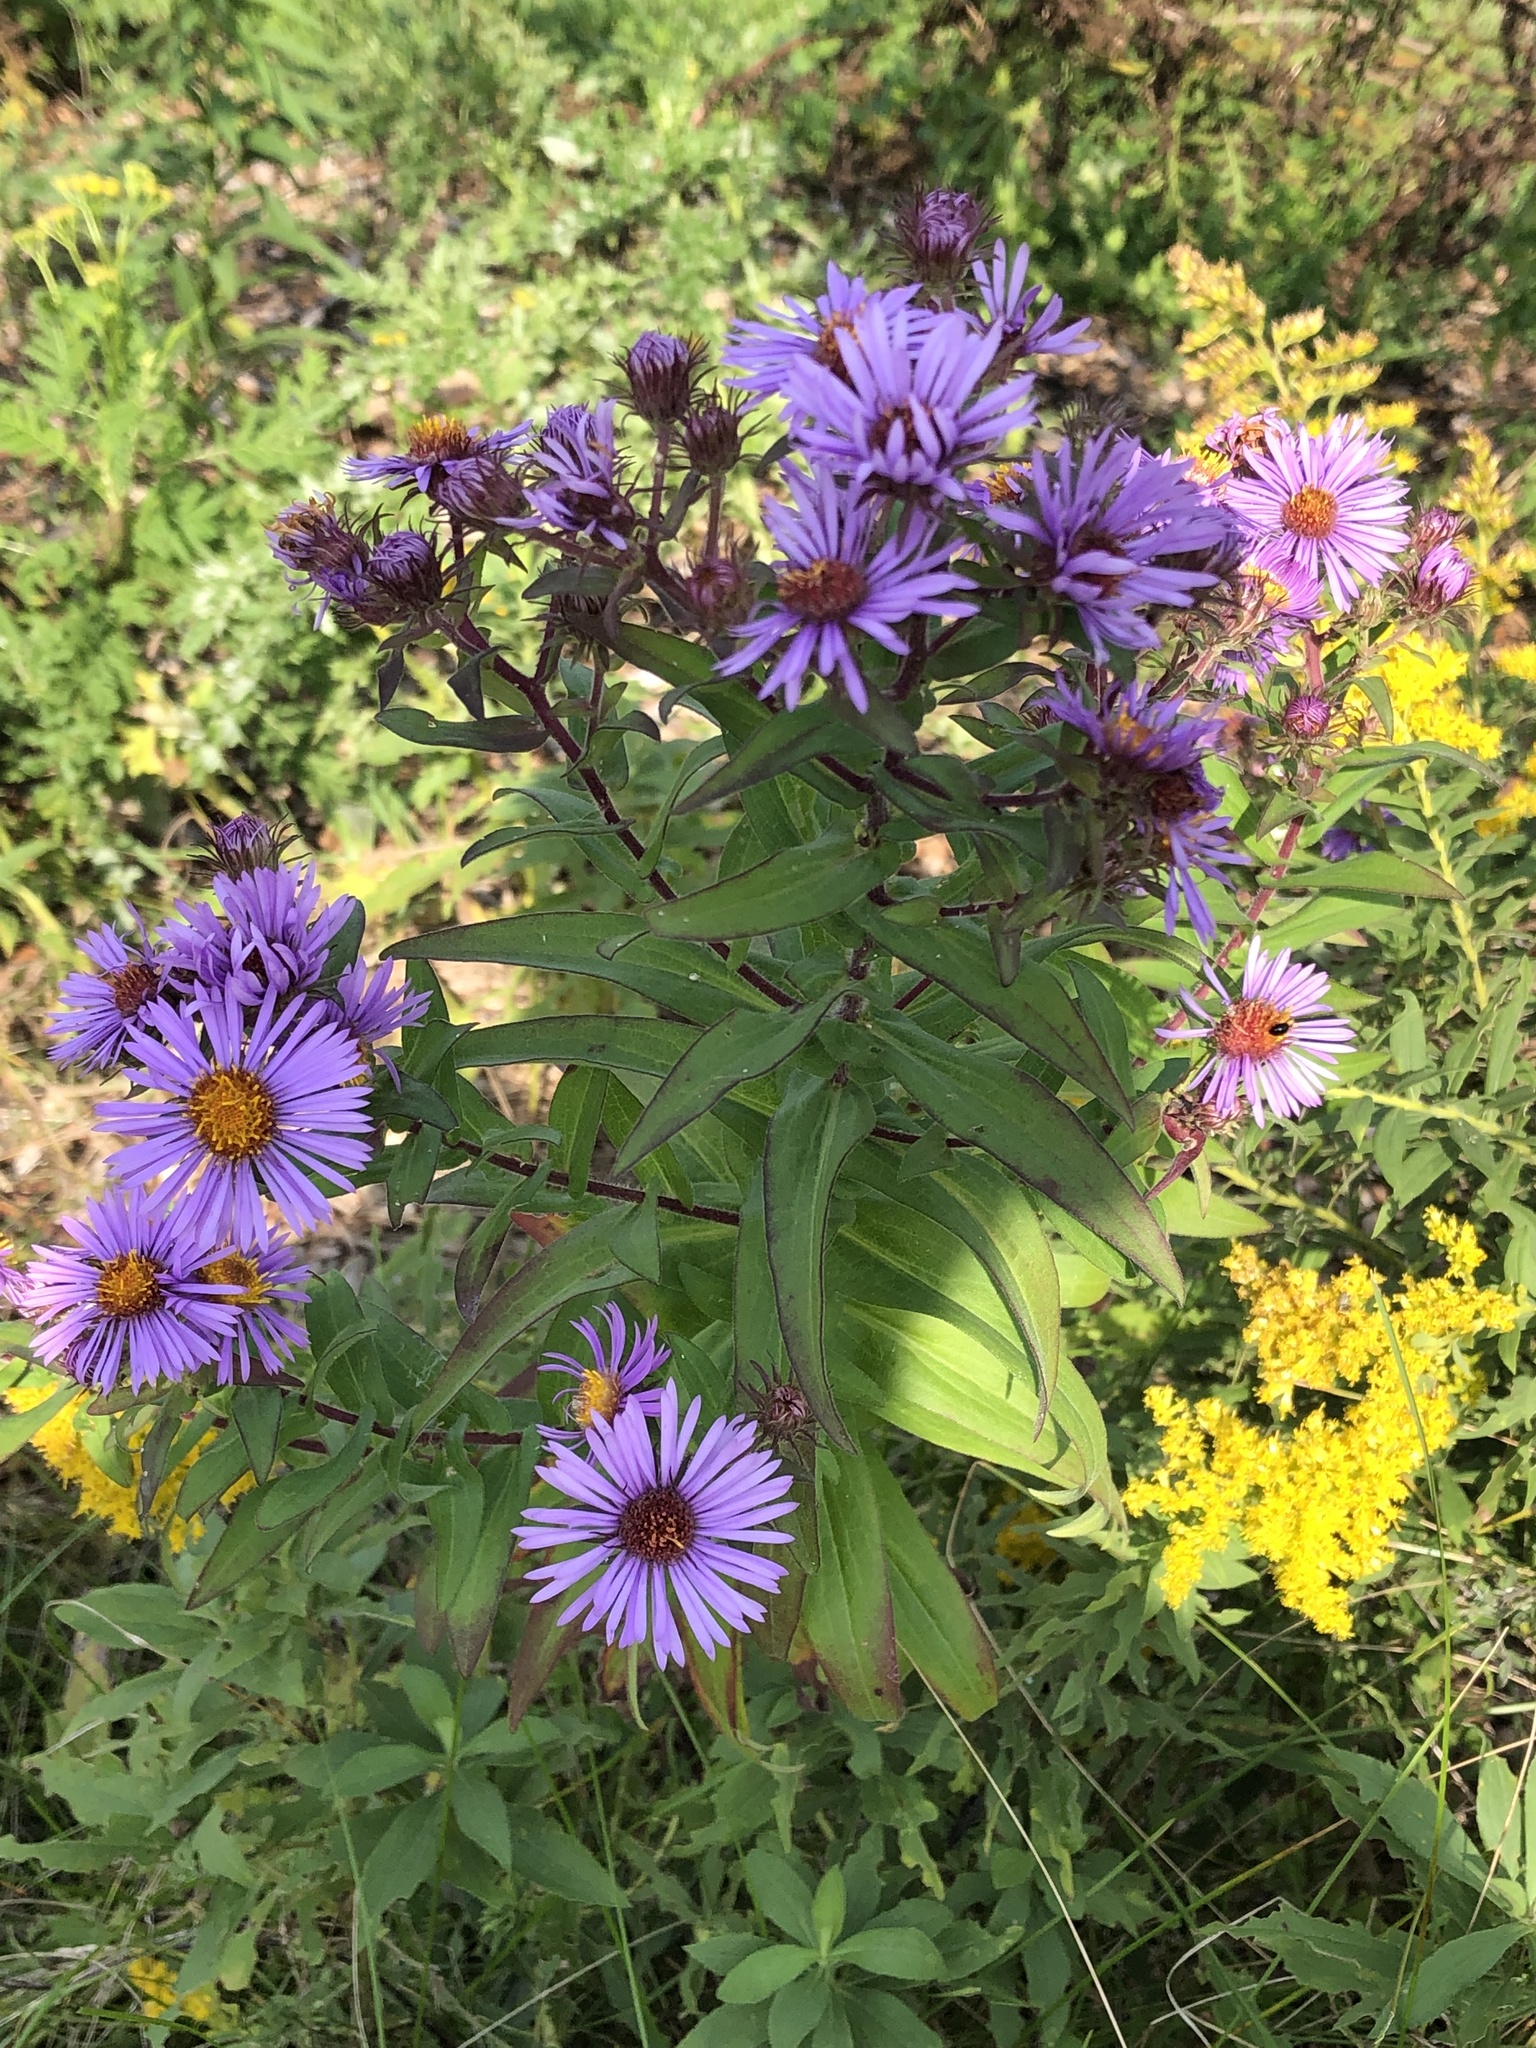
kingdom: Plantae
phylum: Tracheophyta
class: Magnoliopsida
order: Asterales
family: Asteraceae
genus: Symphyotrichum
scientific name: Symphyotrichum novae-angliae
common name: Michaelmas daisy
